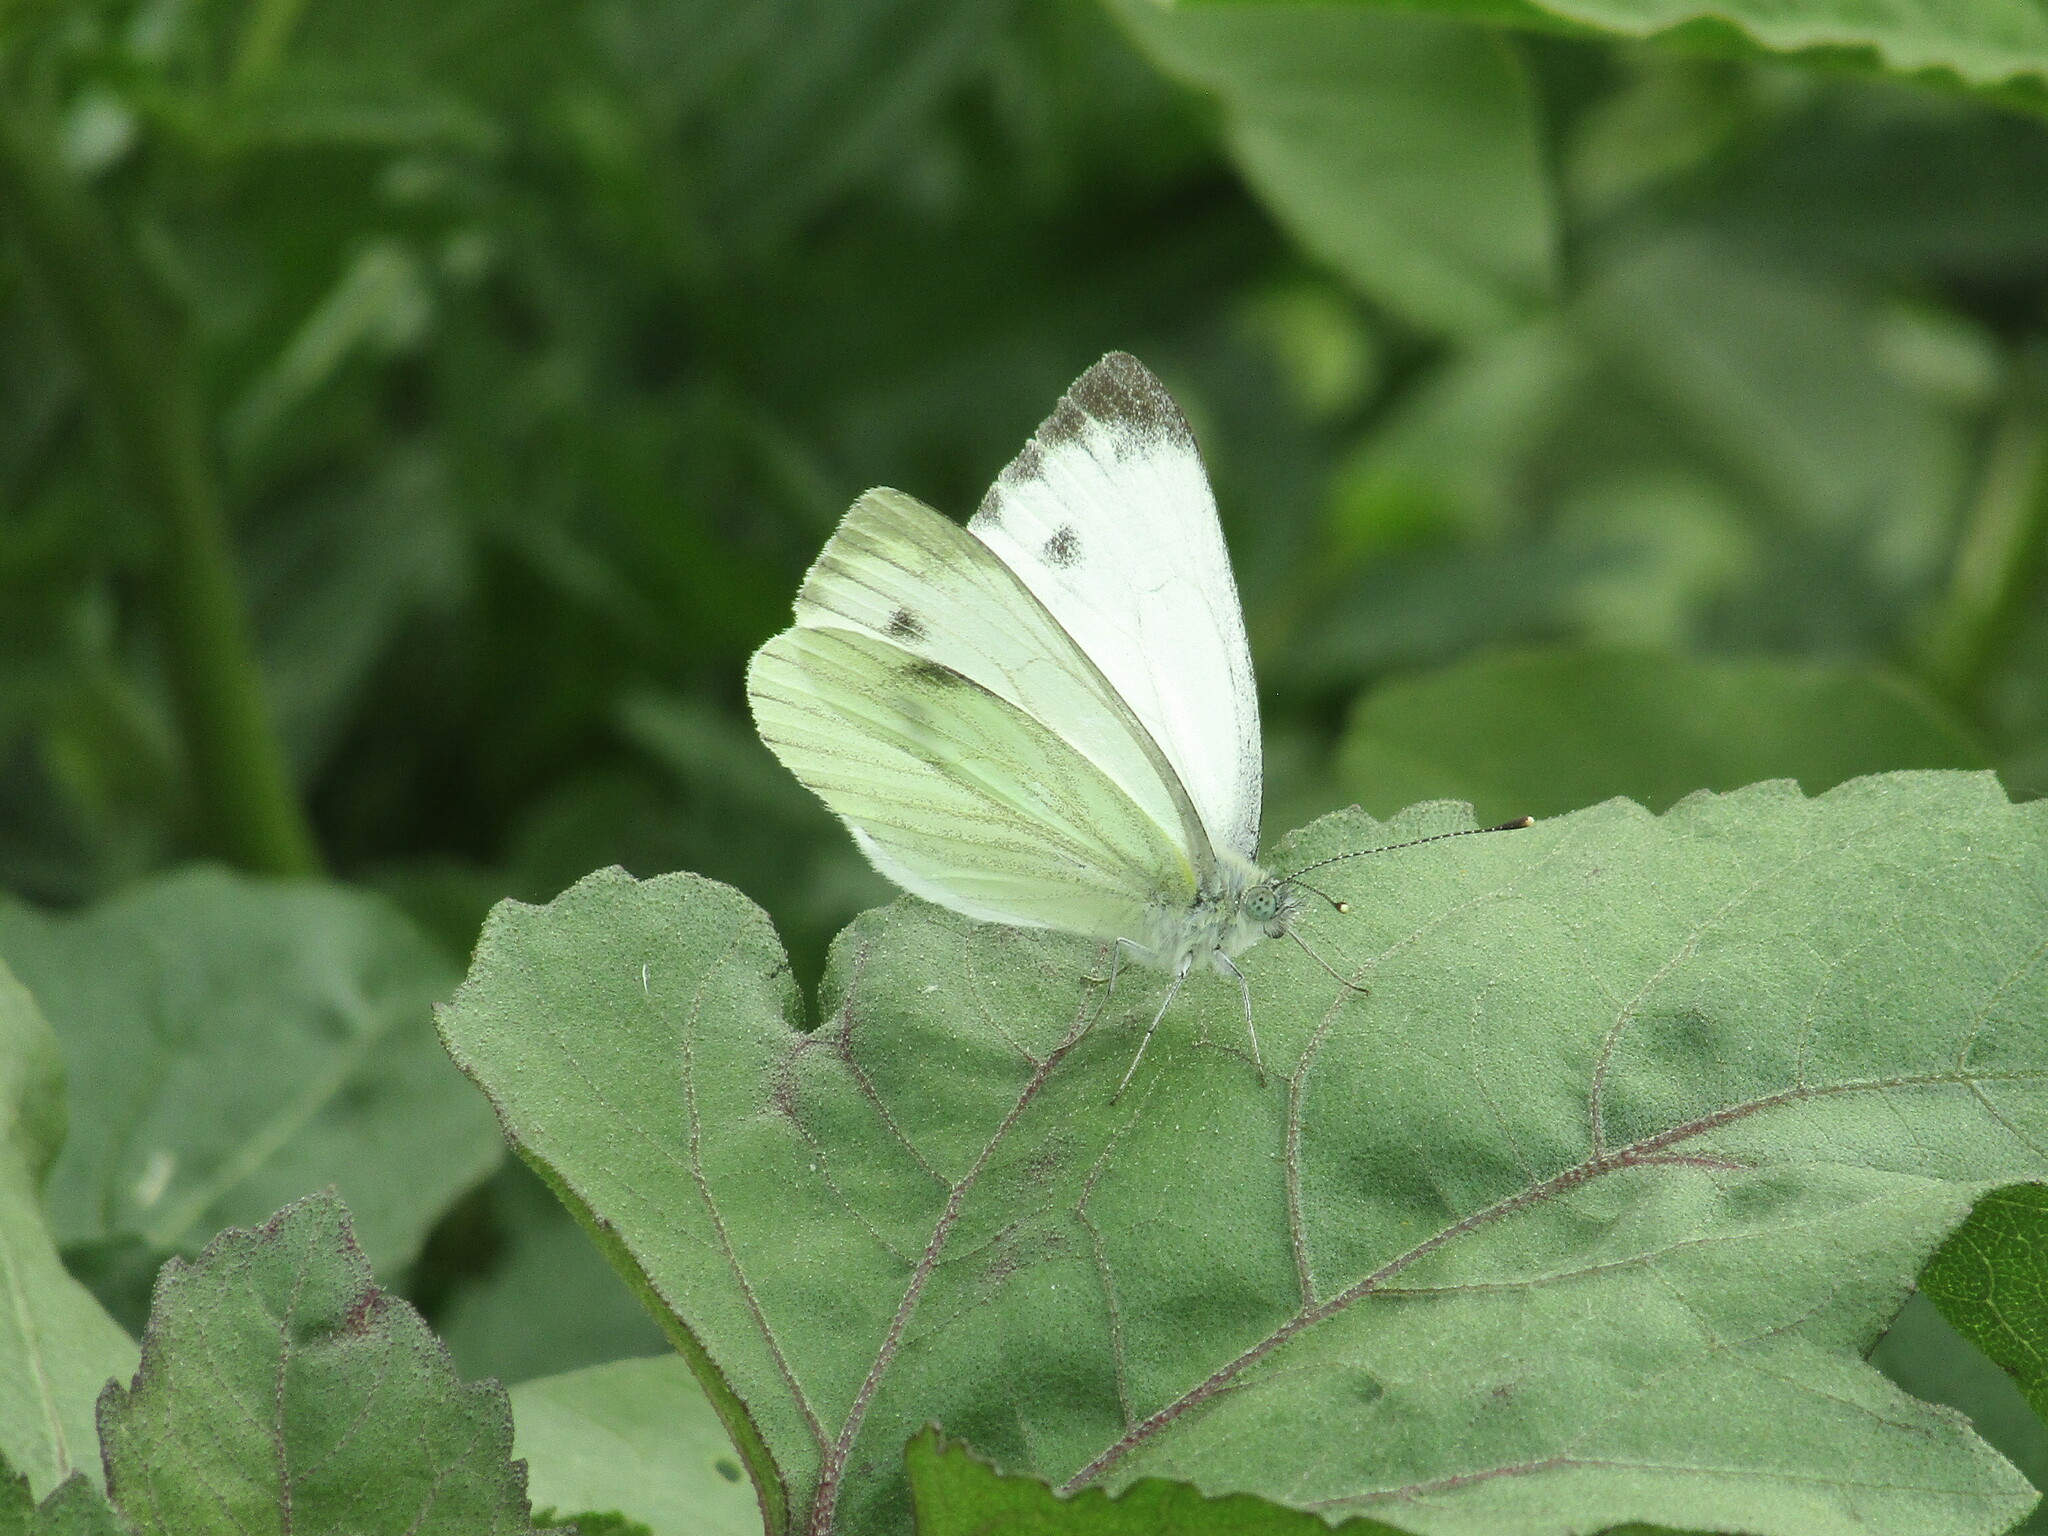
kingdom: Animalia
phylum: Arthropoda
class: Insecta
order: Lepidoptera
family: Pieridae
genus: Pieris
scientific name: Pieris napi
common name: Green-veined white
